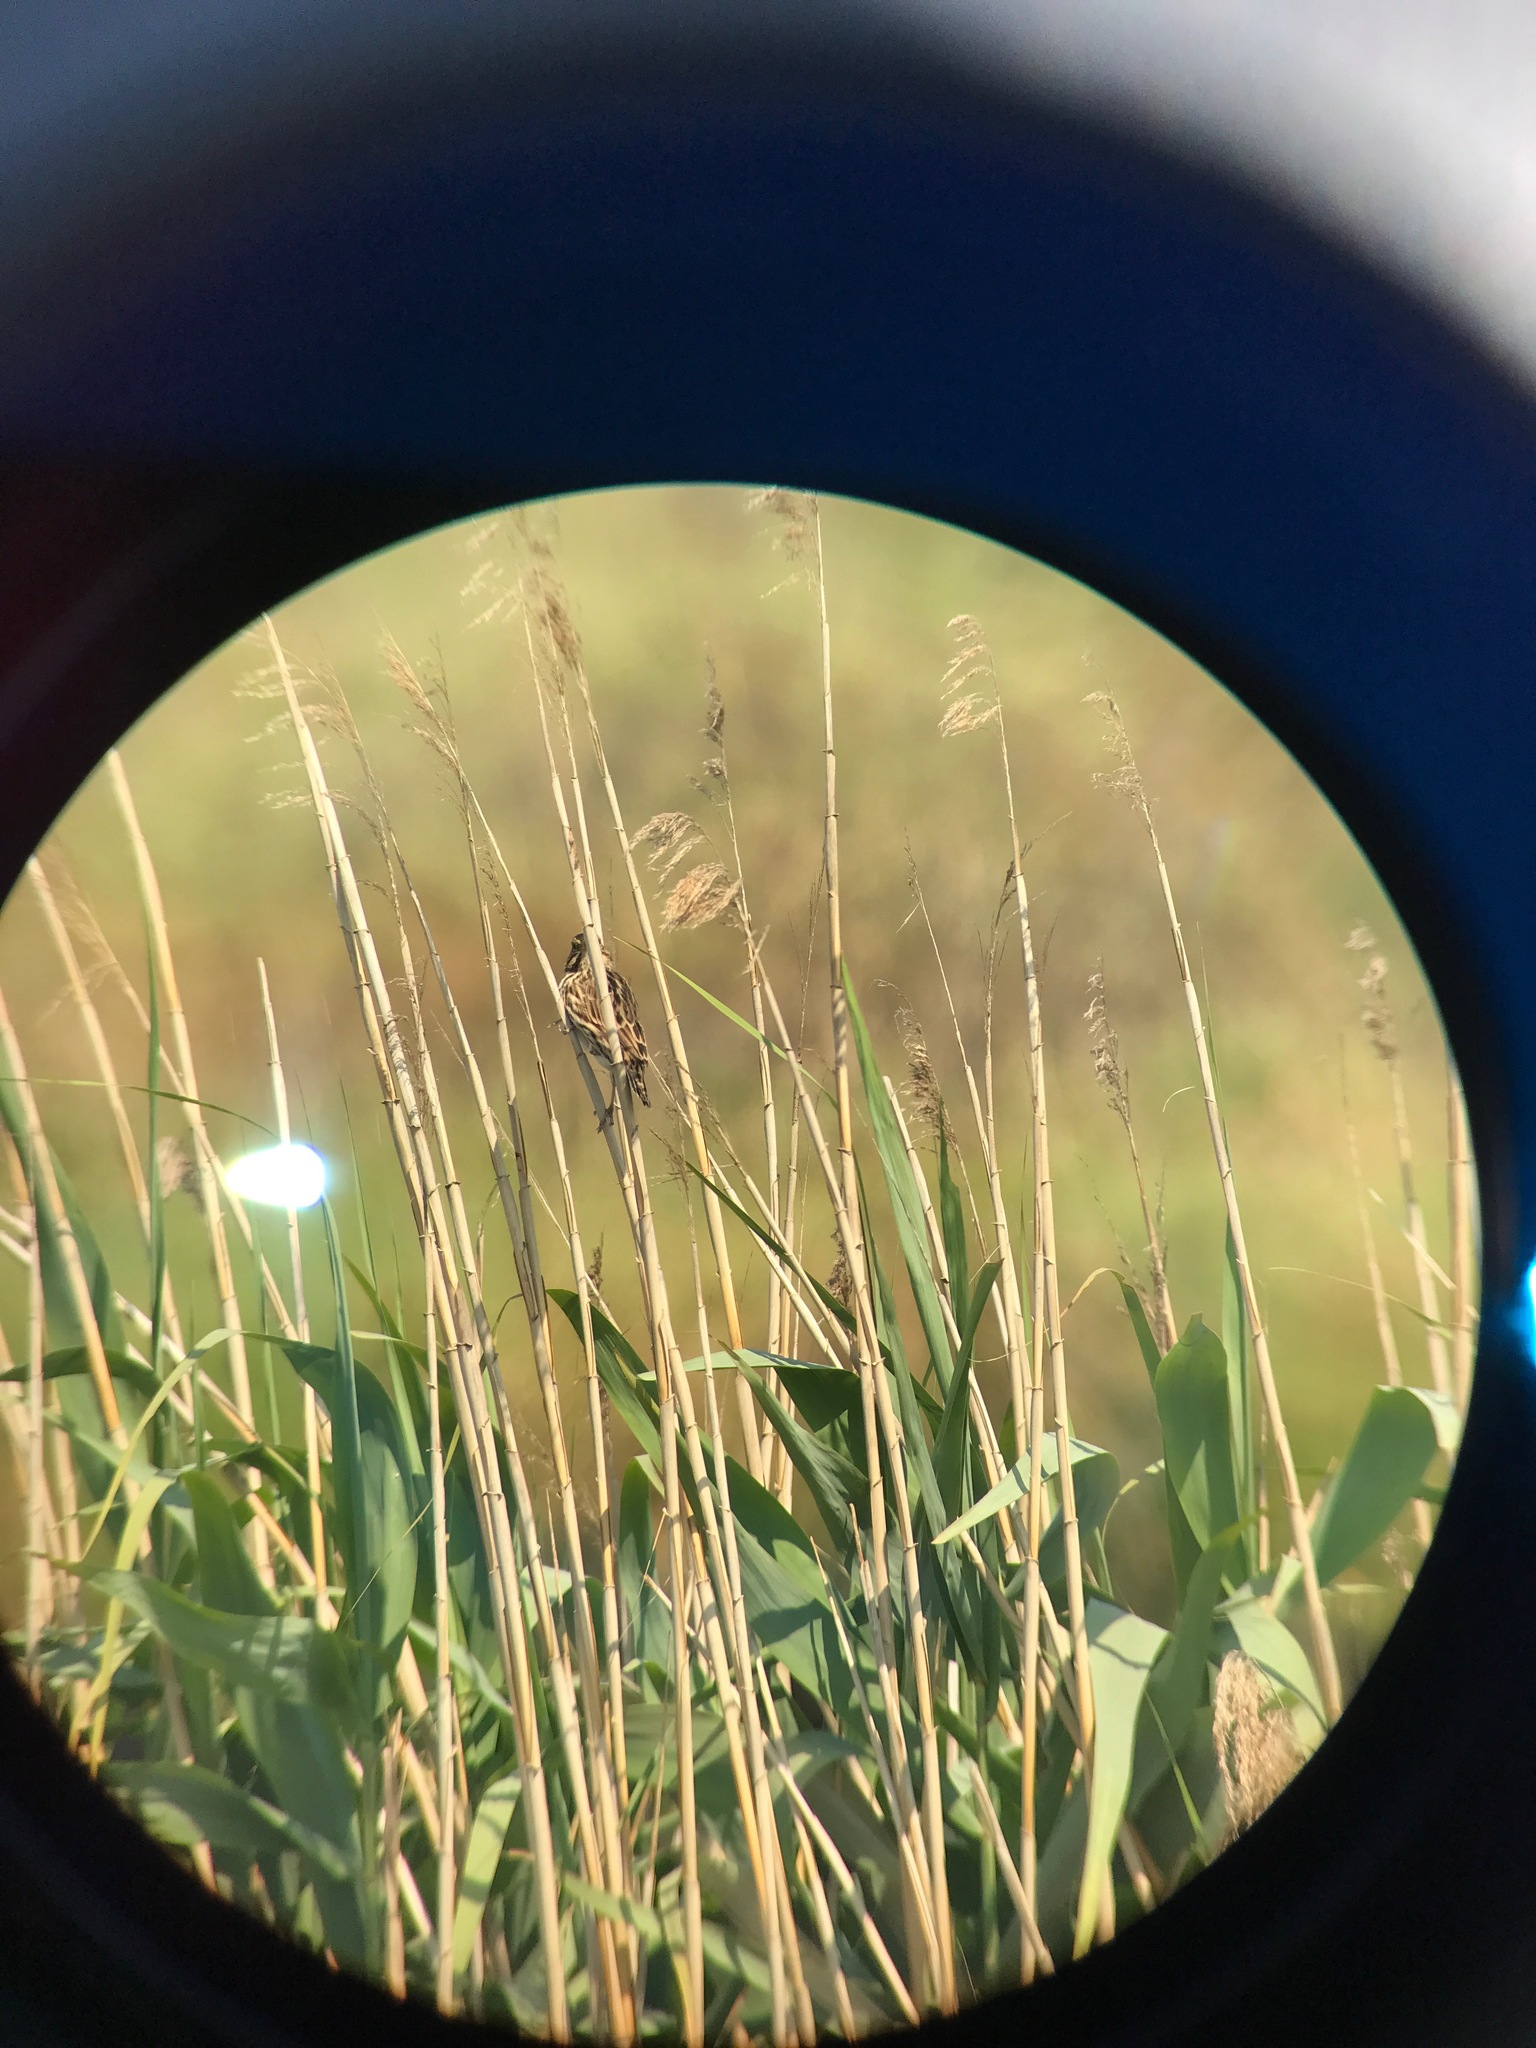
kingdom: Animalia
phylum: Chordata
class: Aves
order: Passeriformes
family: Passerellidae
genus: Passerculus
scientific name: Passerculus sandwichensis
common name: Savannah sparrow
